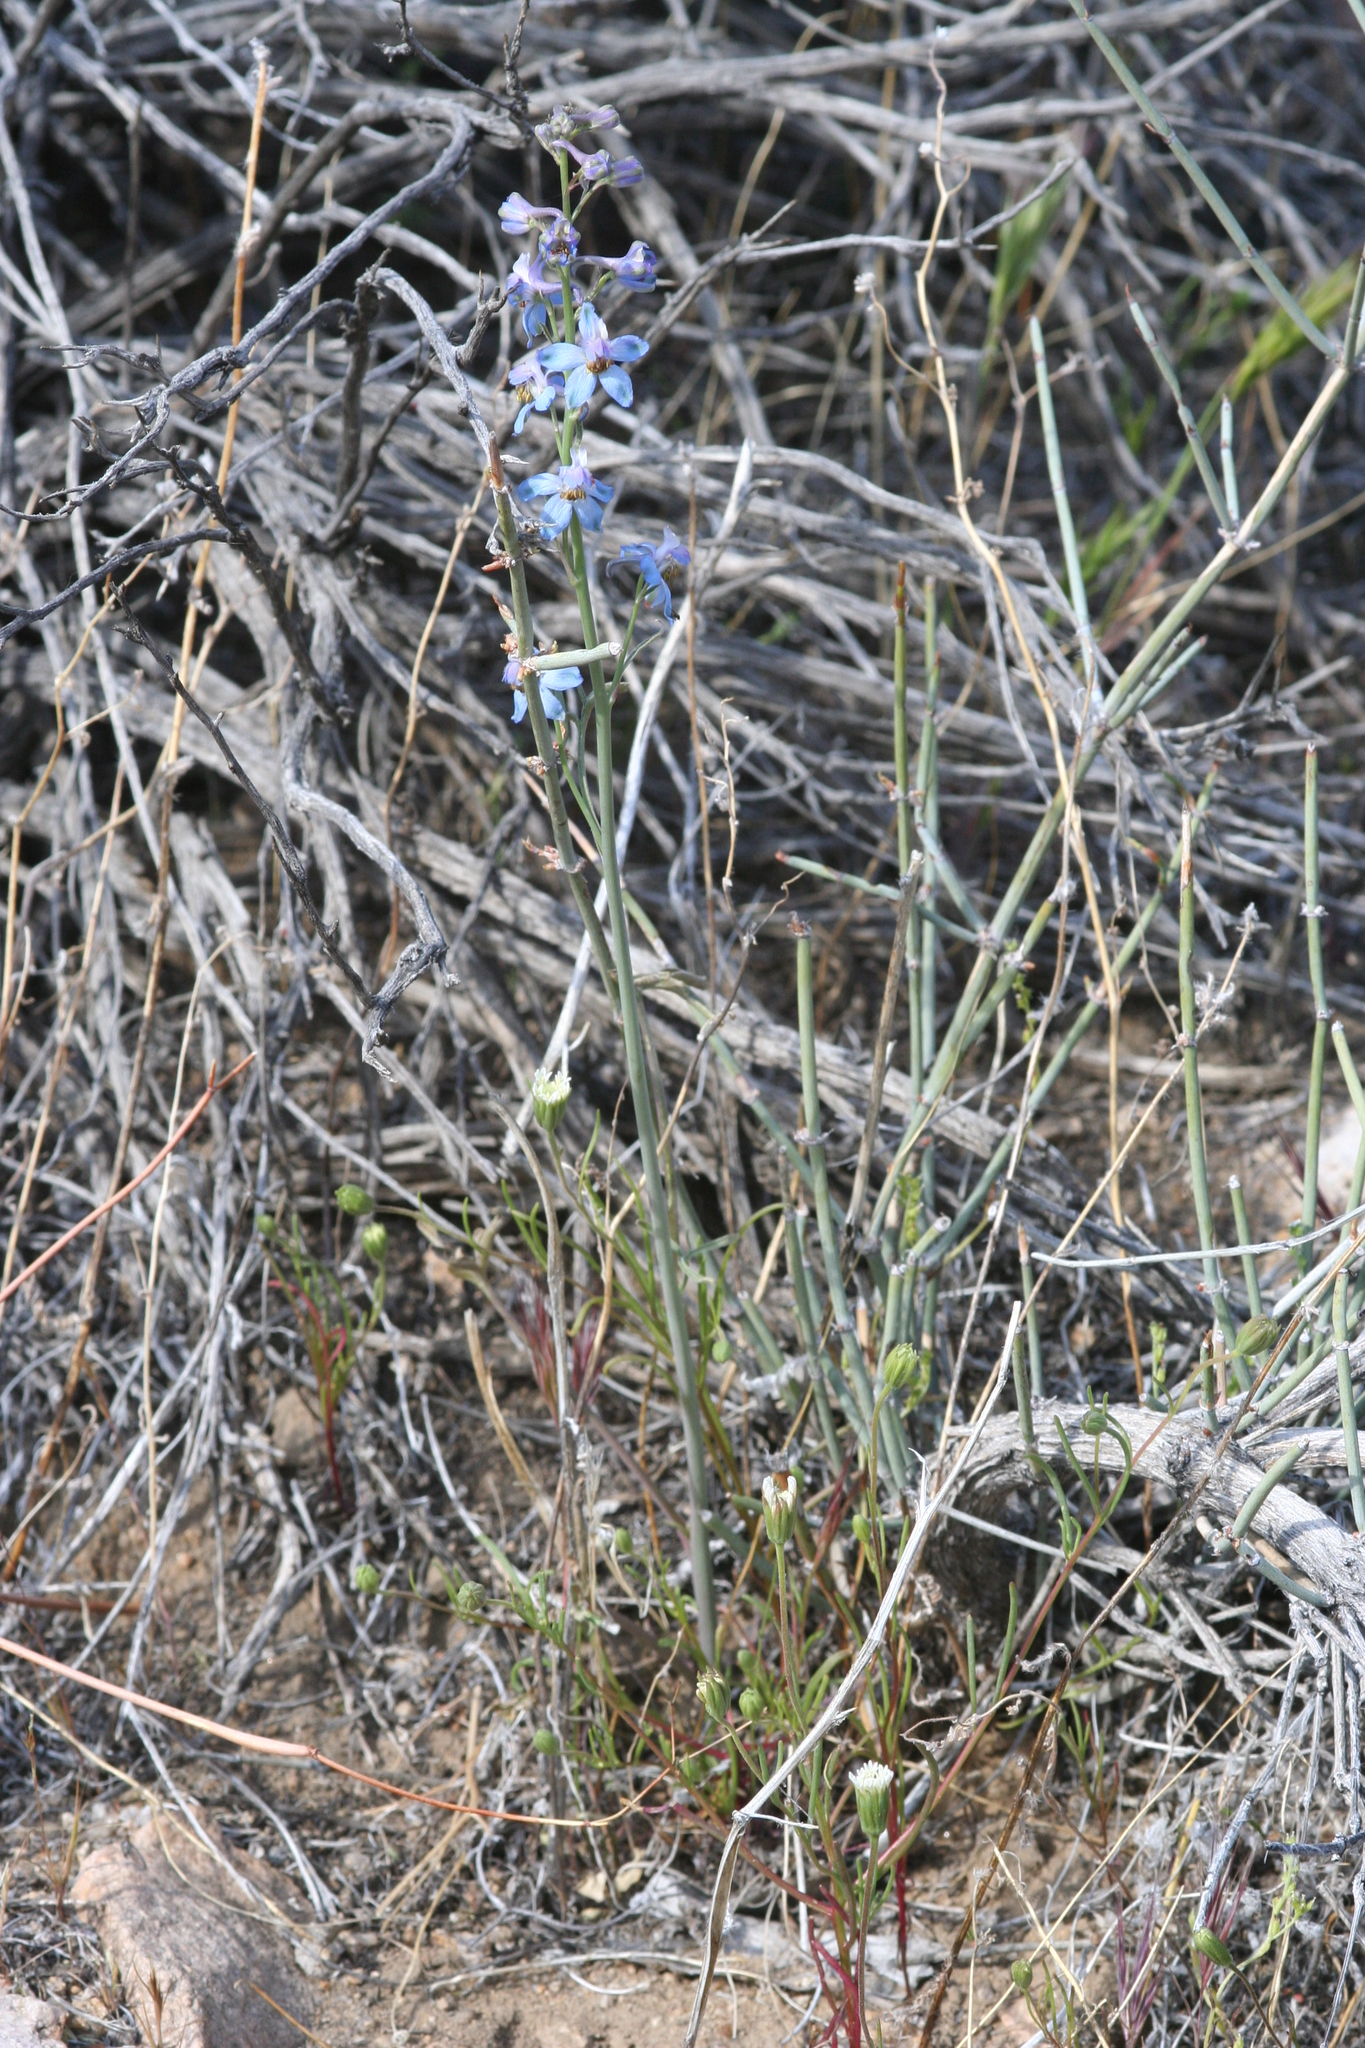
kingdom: Plantae
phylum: Tracheophyta
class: Magnoliopsida
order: Ranunculales
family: Ranunculaceae
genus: Delphinium
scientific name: Delphinium parishii
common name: Apache larkspur
